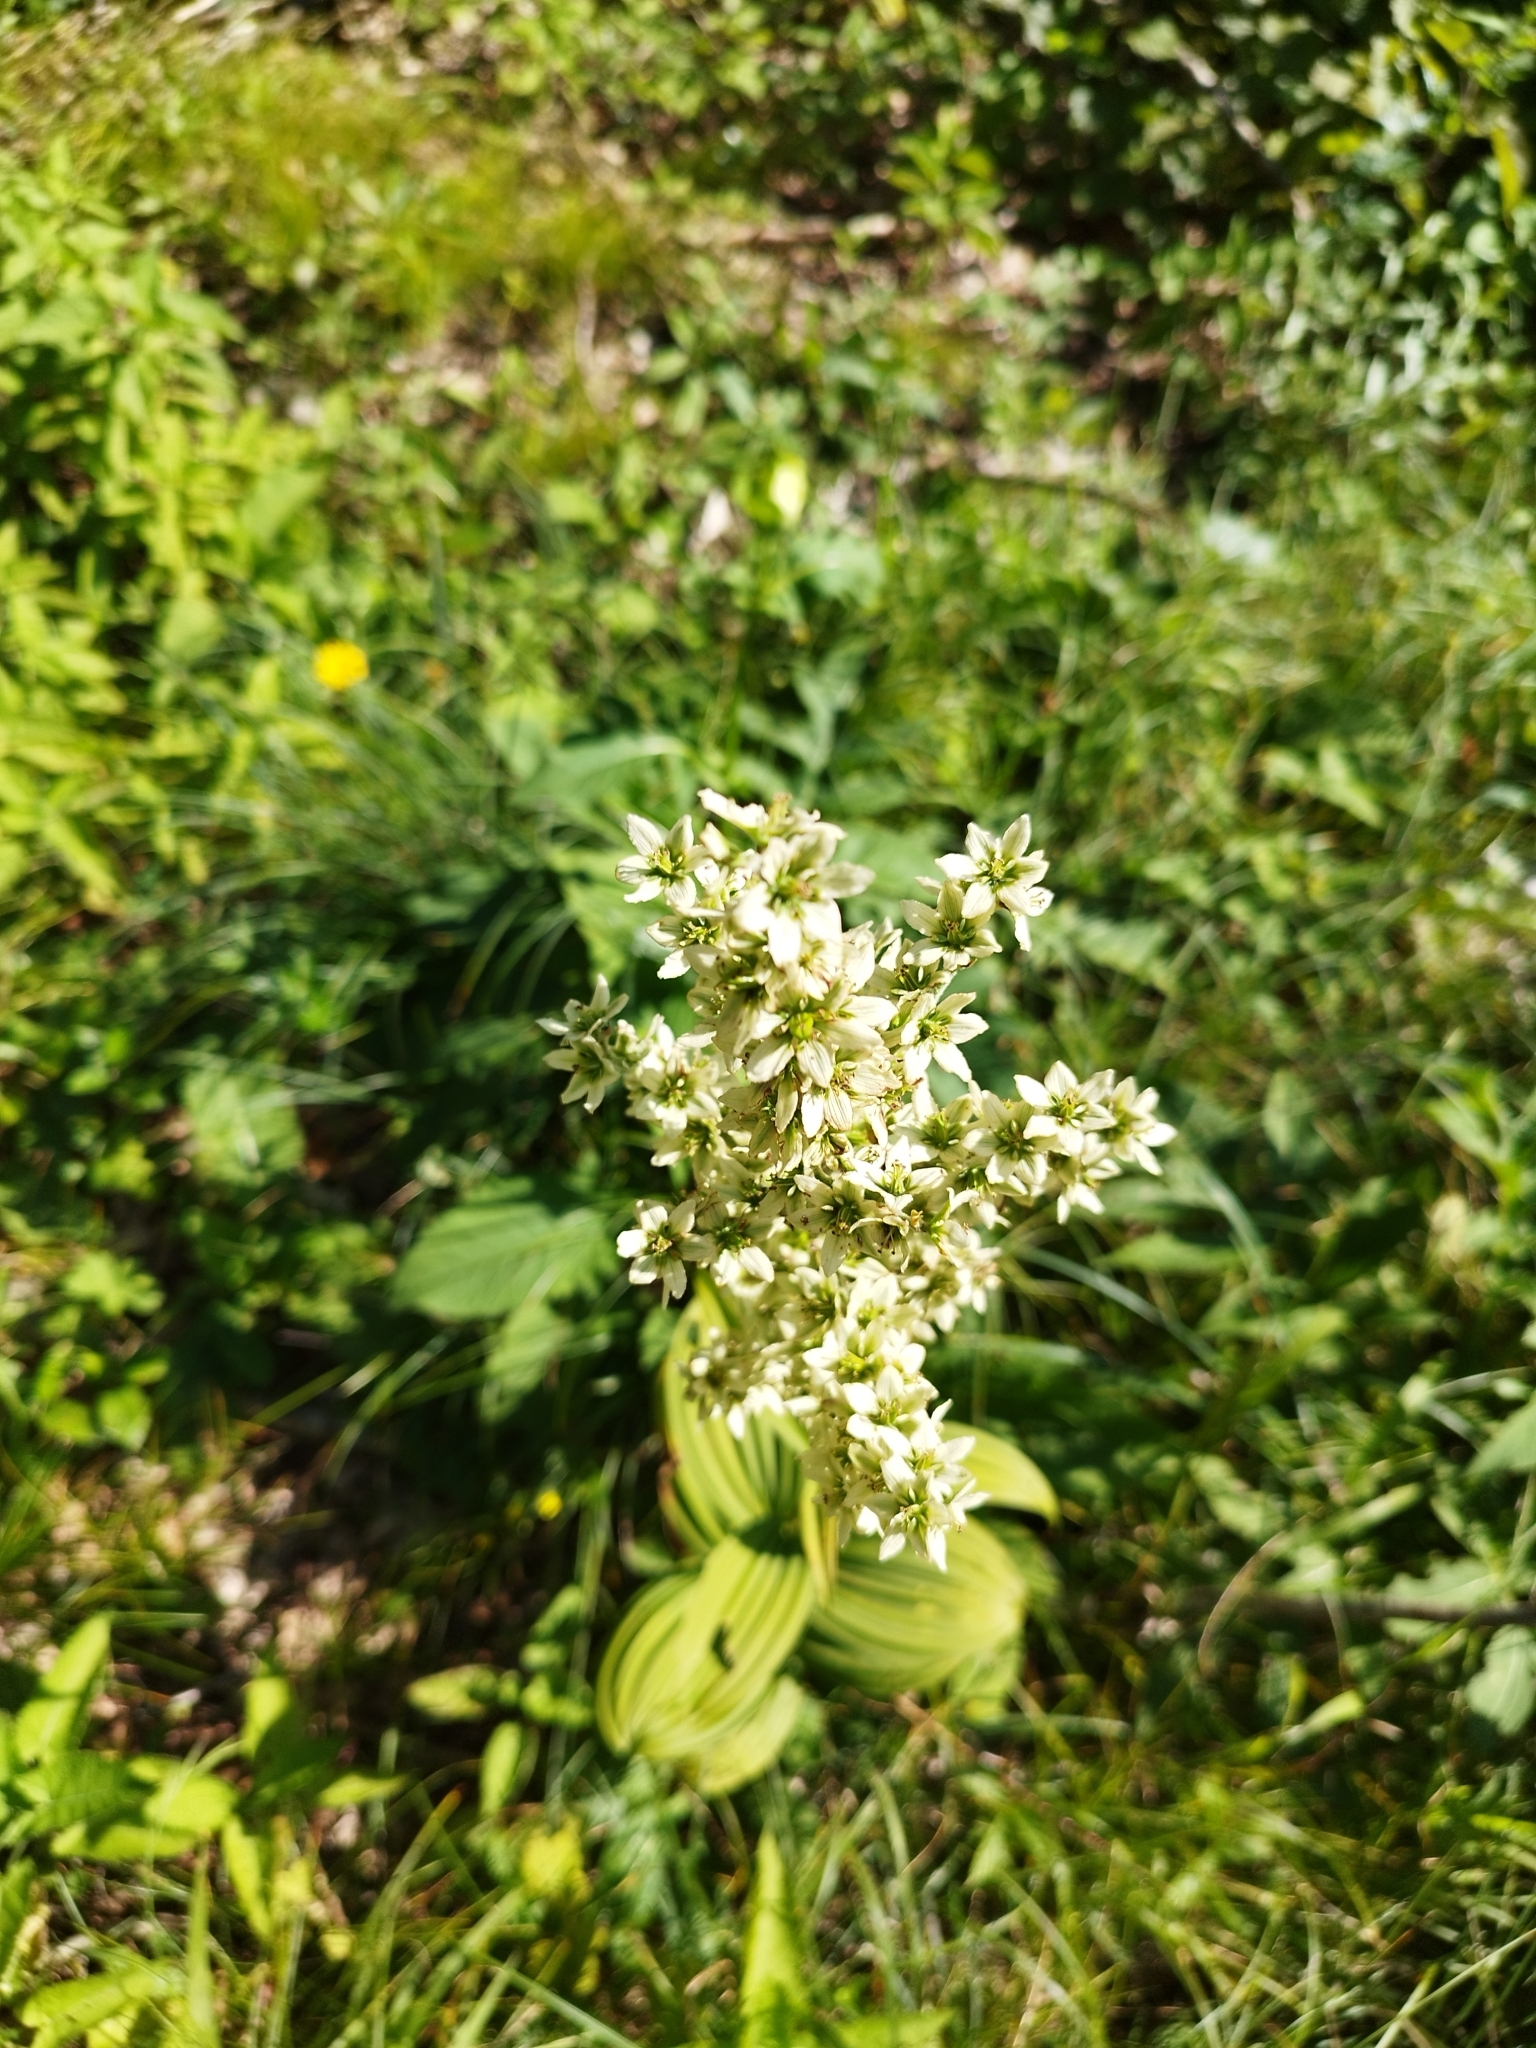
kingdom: Plantae
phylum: Tracheophyta
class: Liliopsida
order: Liliales
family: Melanthiaceae
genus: Veratrum
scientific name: Veratrum album
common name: White veratrum
